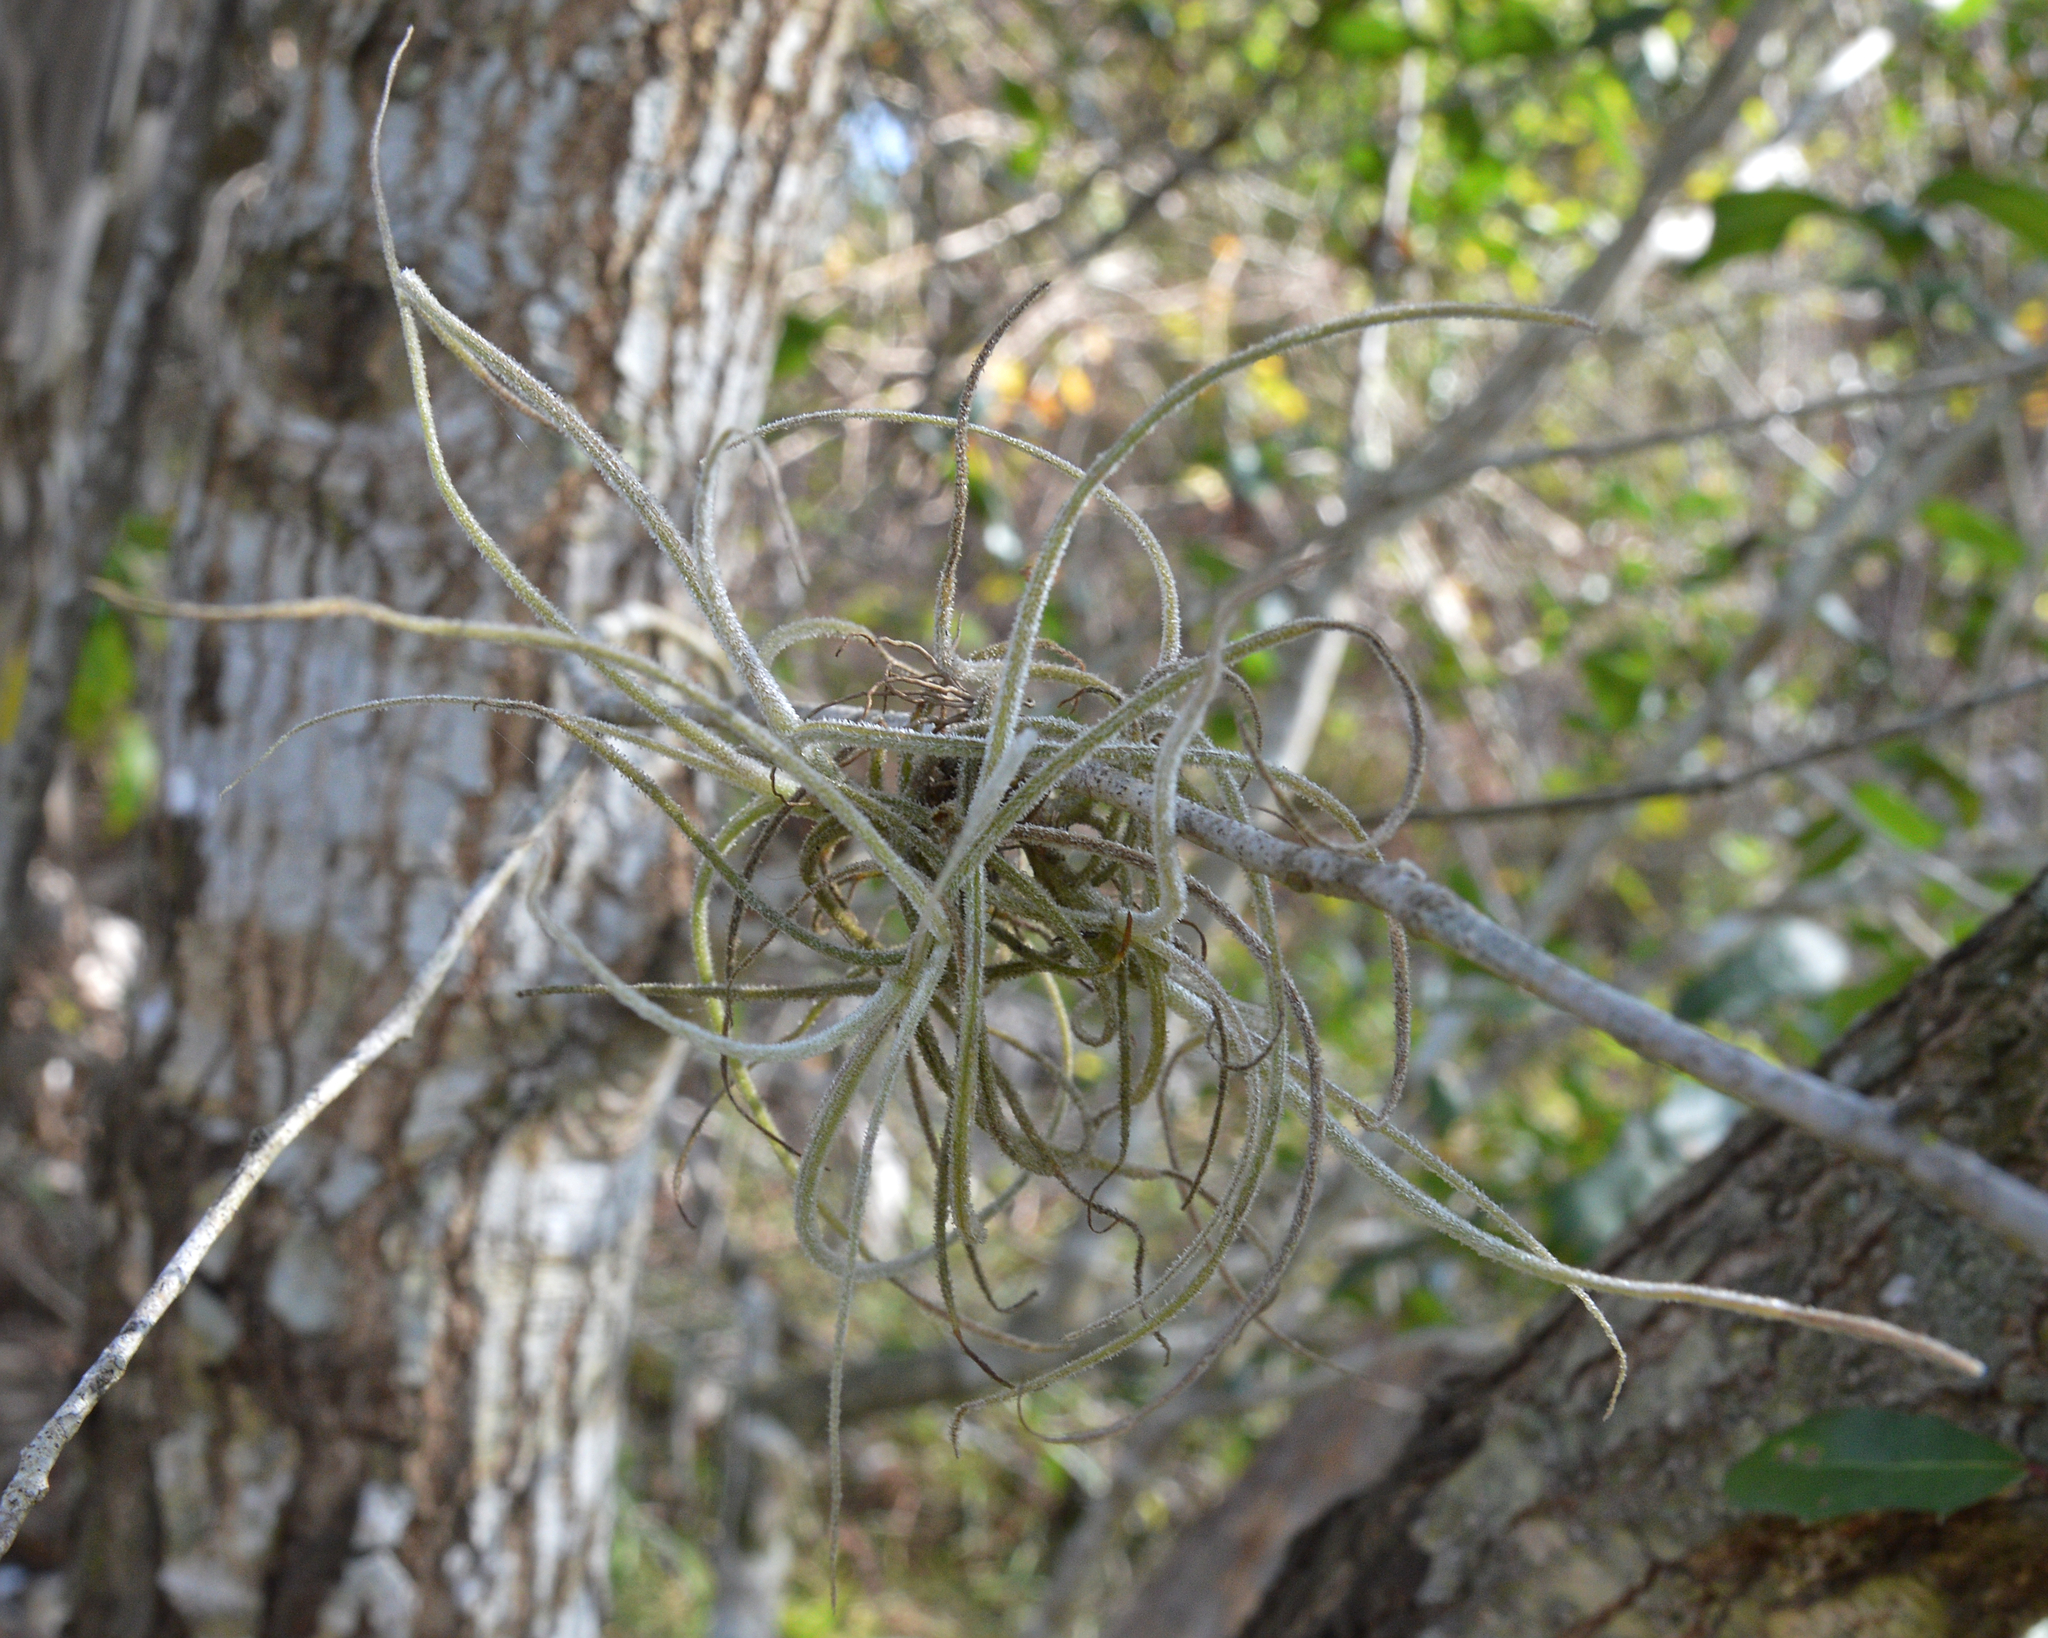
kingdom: Plantae
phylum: Tracheophyta
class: Liliopsida
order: Poales
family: Bromeliaceae
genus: Tillandsia
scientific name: Tillandsia recurvata
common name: Small ballmoss
